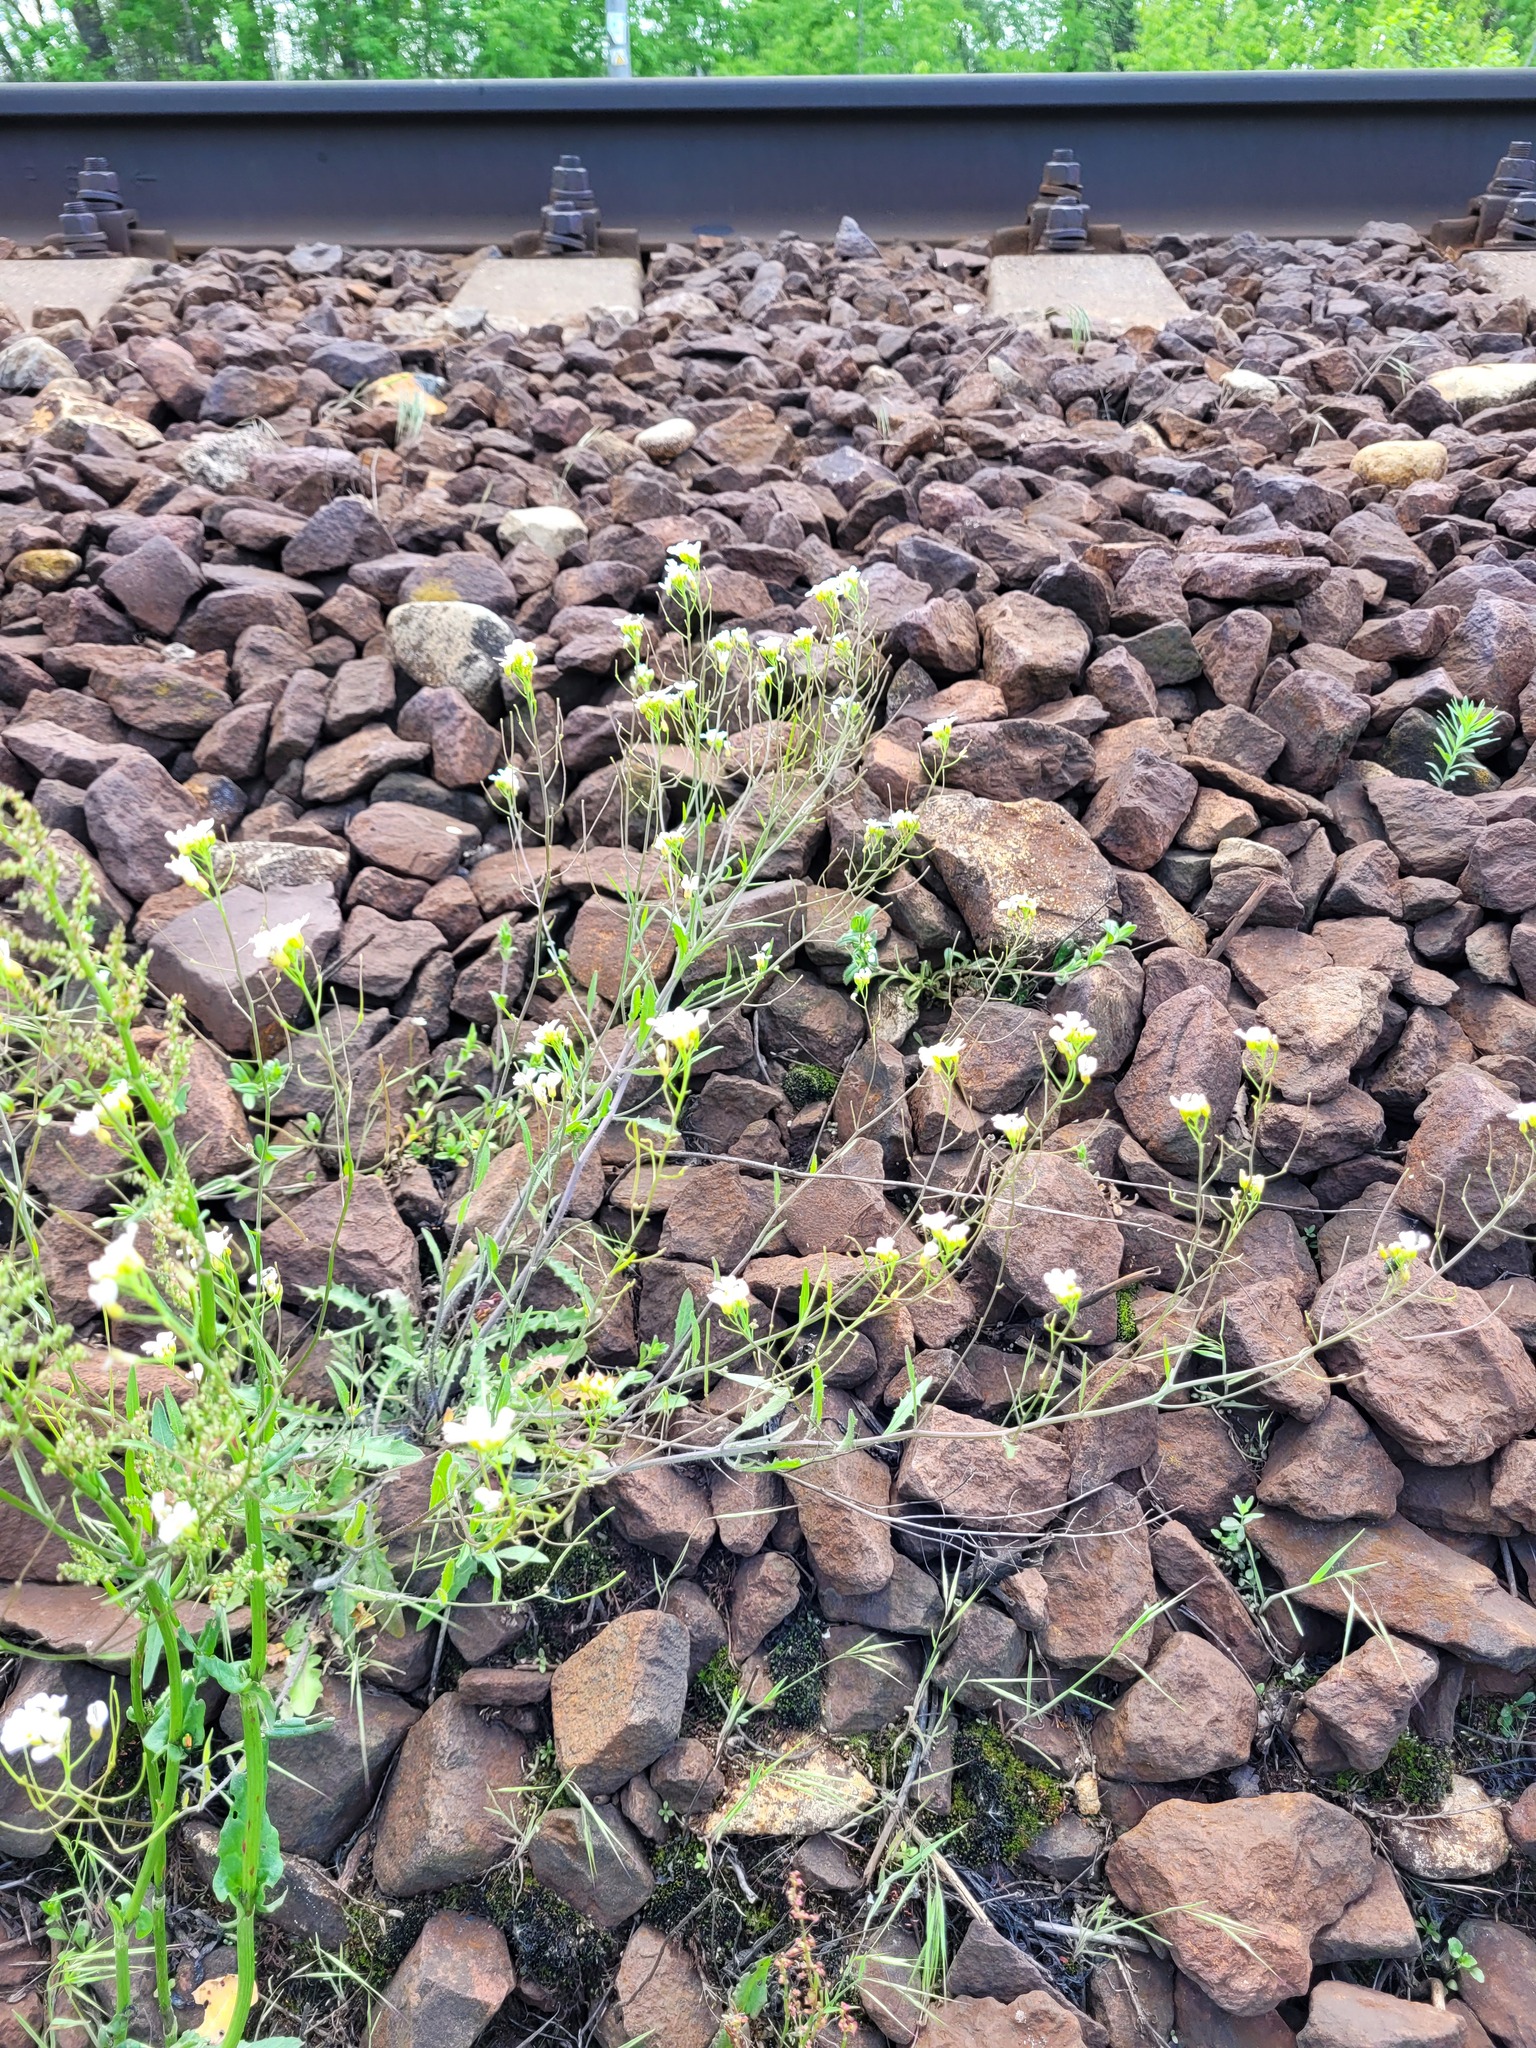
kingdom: Plantae
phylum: Tracheophyta
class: Magnoliopsida
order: Brassicales
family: Brassicaceae
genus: Arabidopsis
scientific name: Arabidopsis arenosa
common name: Sand rock-cress
